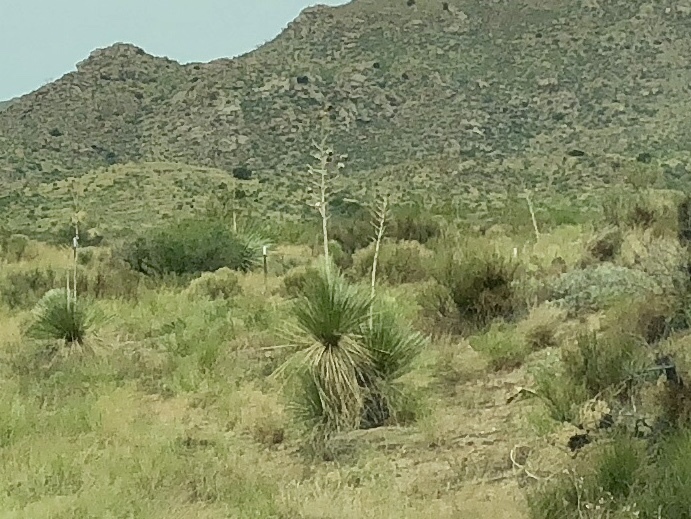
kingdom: Plantae
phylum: Tracheophyta
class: Liliopsida
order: Asparagales
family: Asparagaceae
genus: Yucca
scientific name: Yucca elata
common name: Palmella
